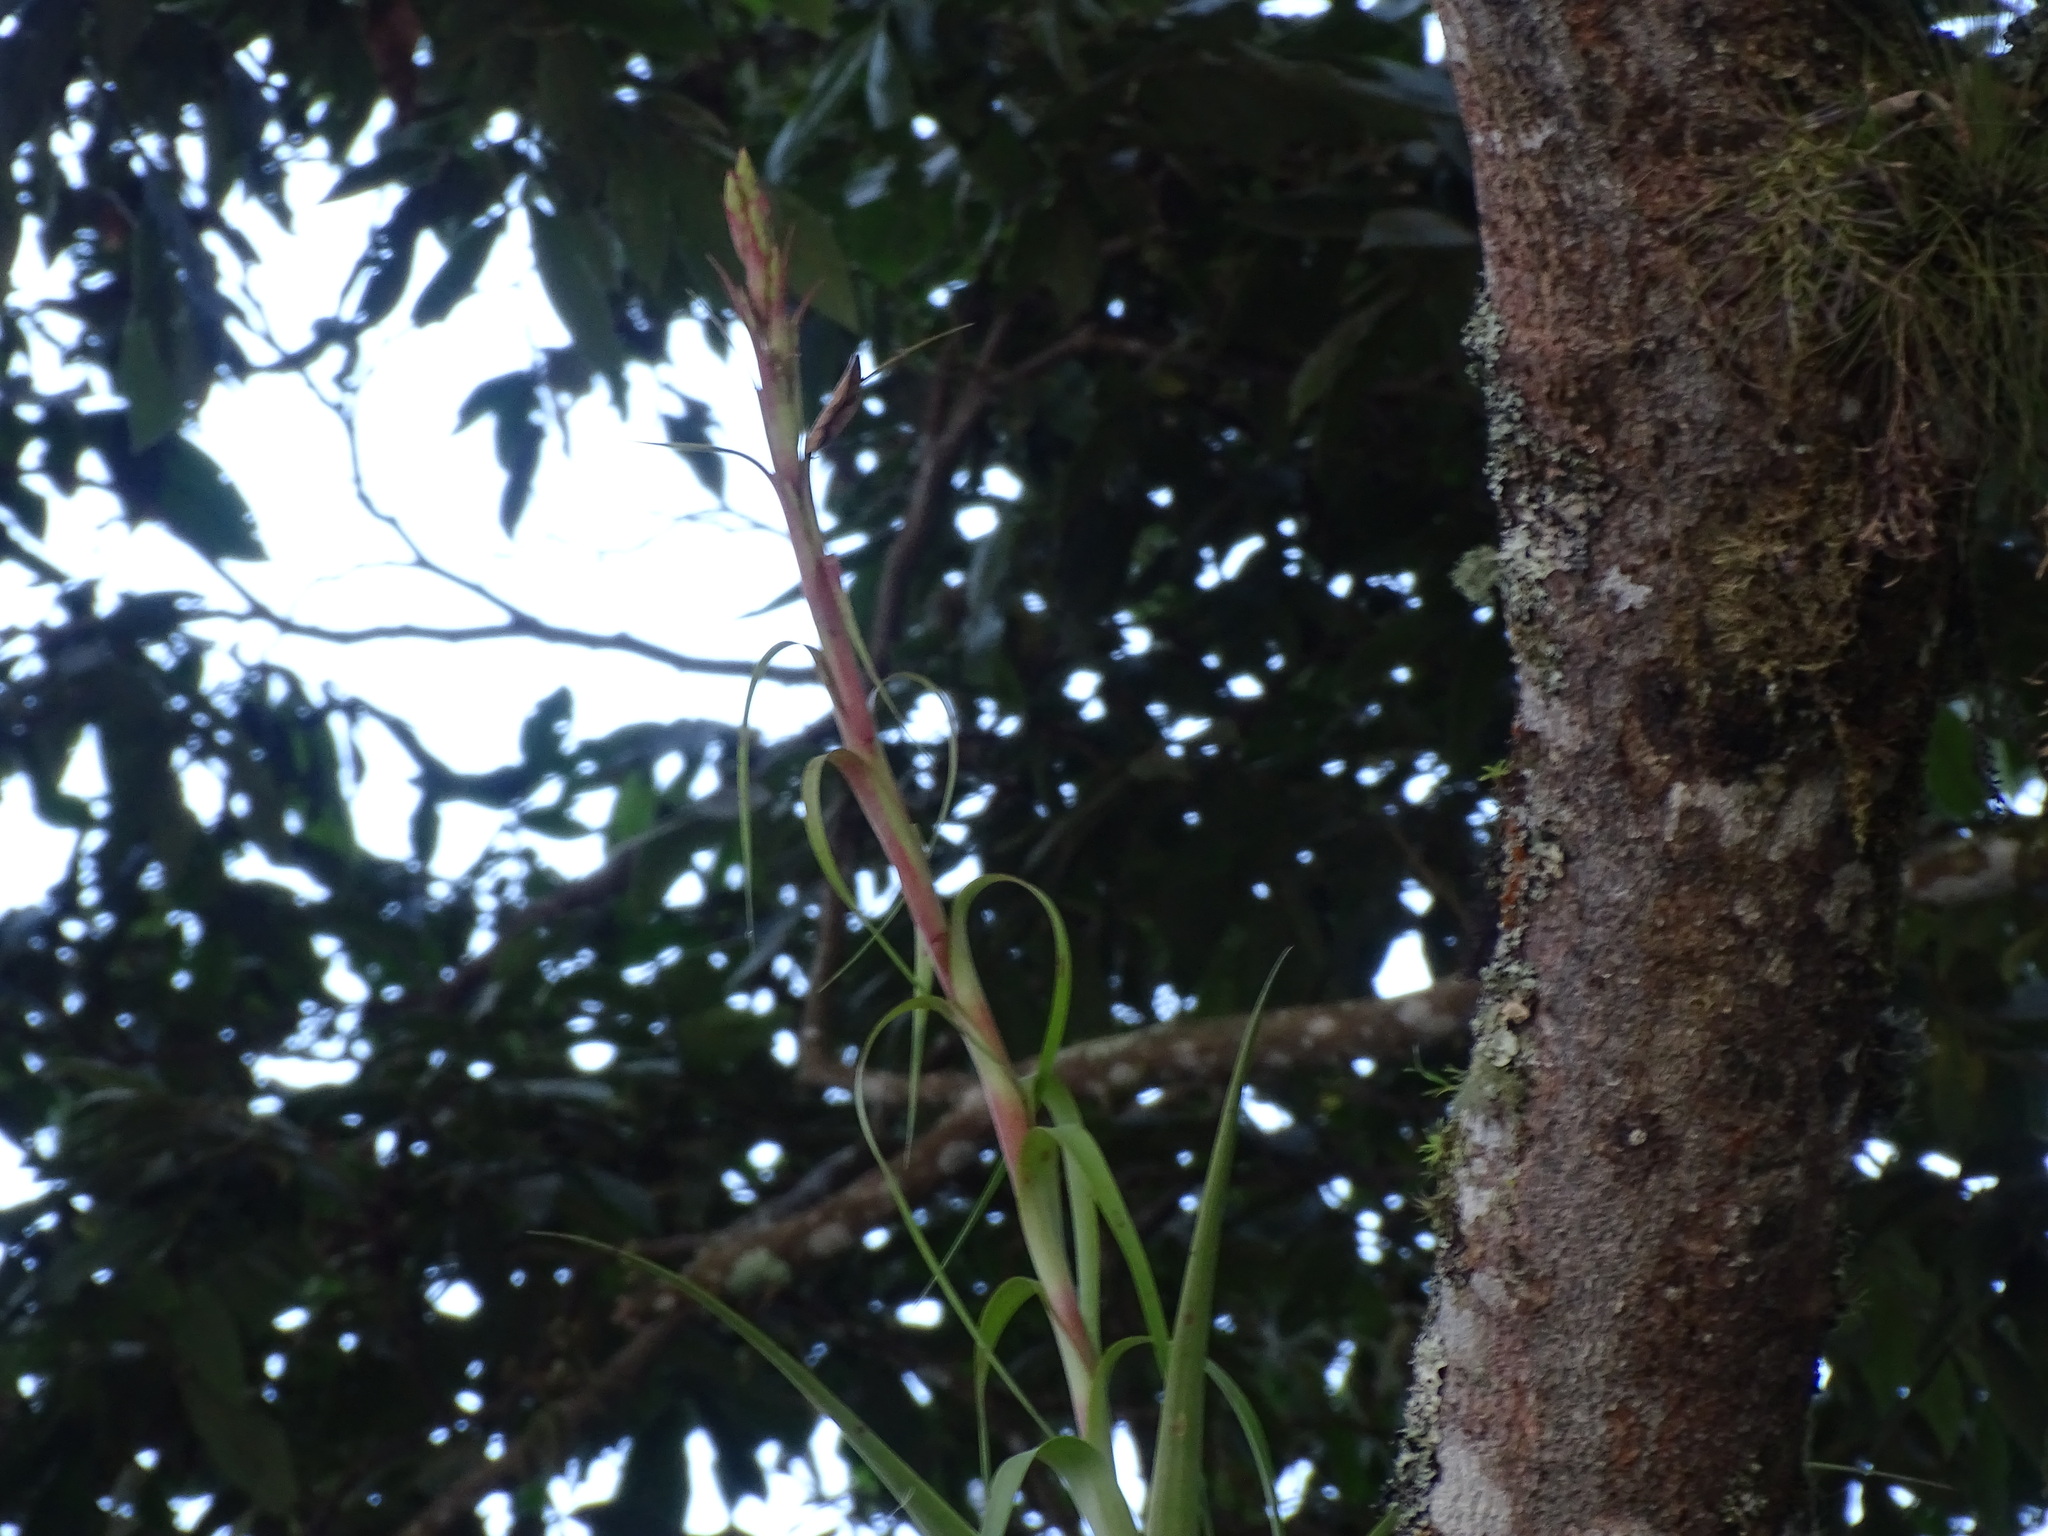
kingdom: Plantae
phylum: Tracheophyta
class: Liliopsida
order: Poales
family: Bromeliaceae
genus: Tillandsia
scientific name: Tillandsia polystachia
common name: Airplant
